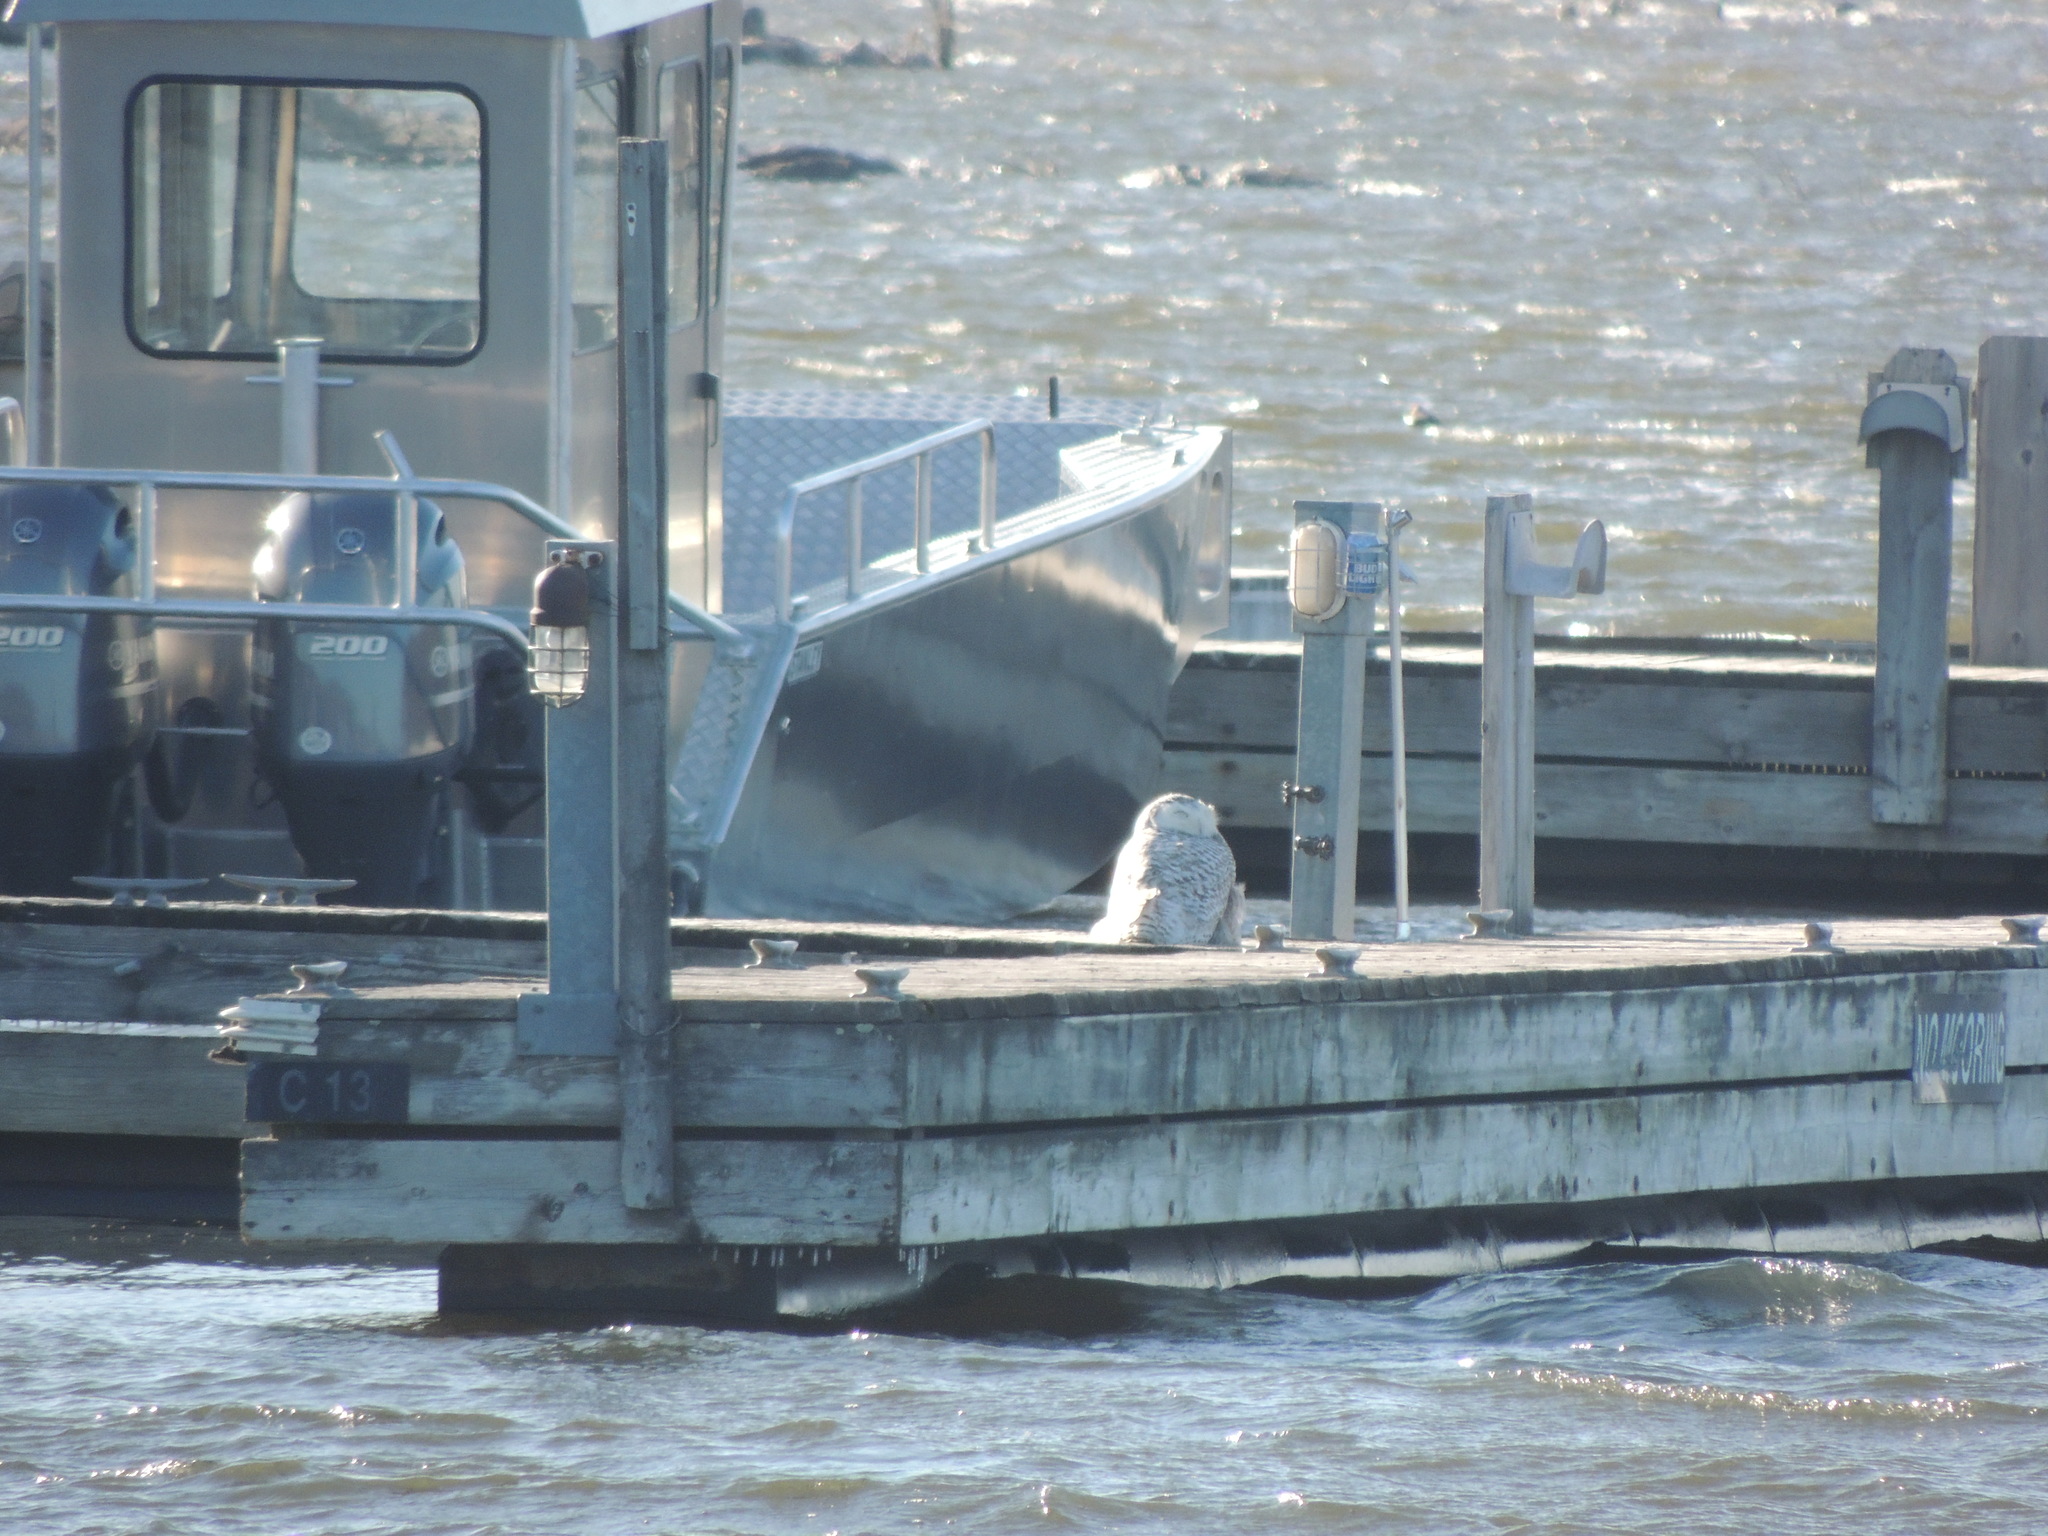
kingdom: Animalia
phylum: Chordata
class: Aves
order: Strigiformes
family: Strigidae
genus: Bubo
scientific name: Bubo scandiacus
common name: Snowy owl
